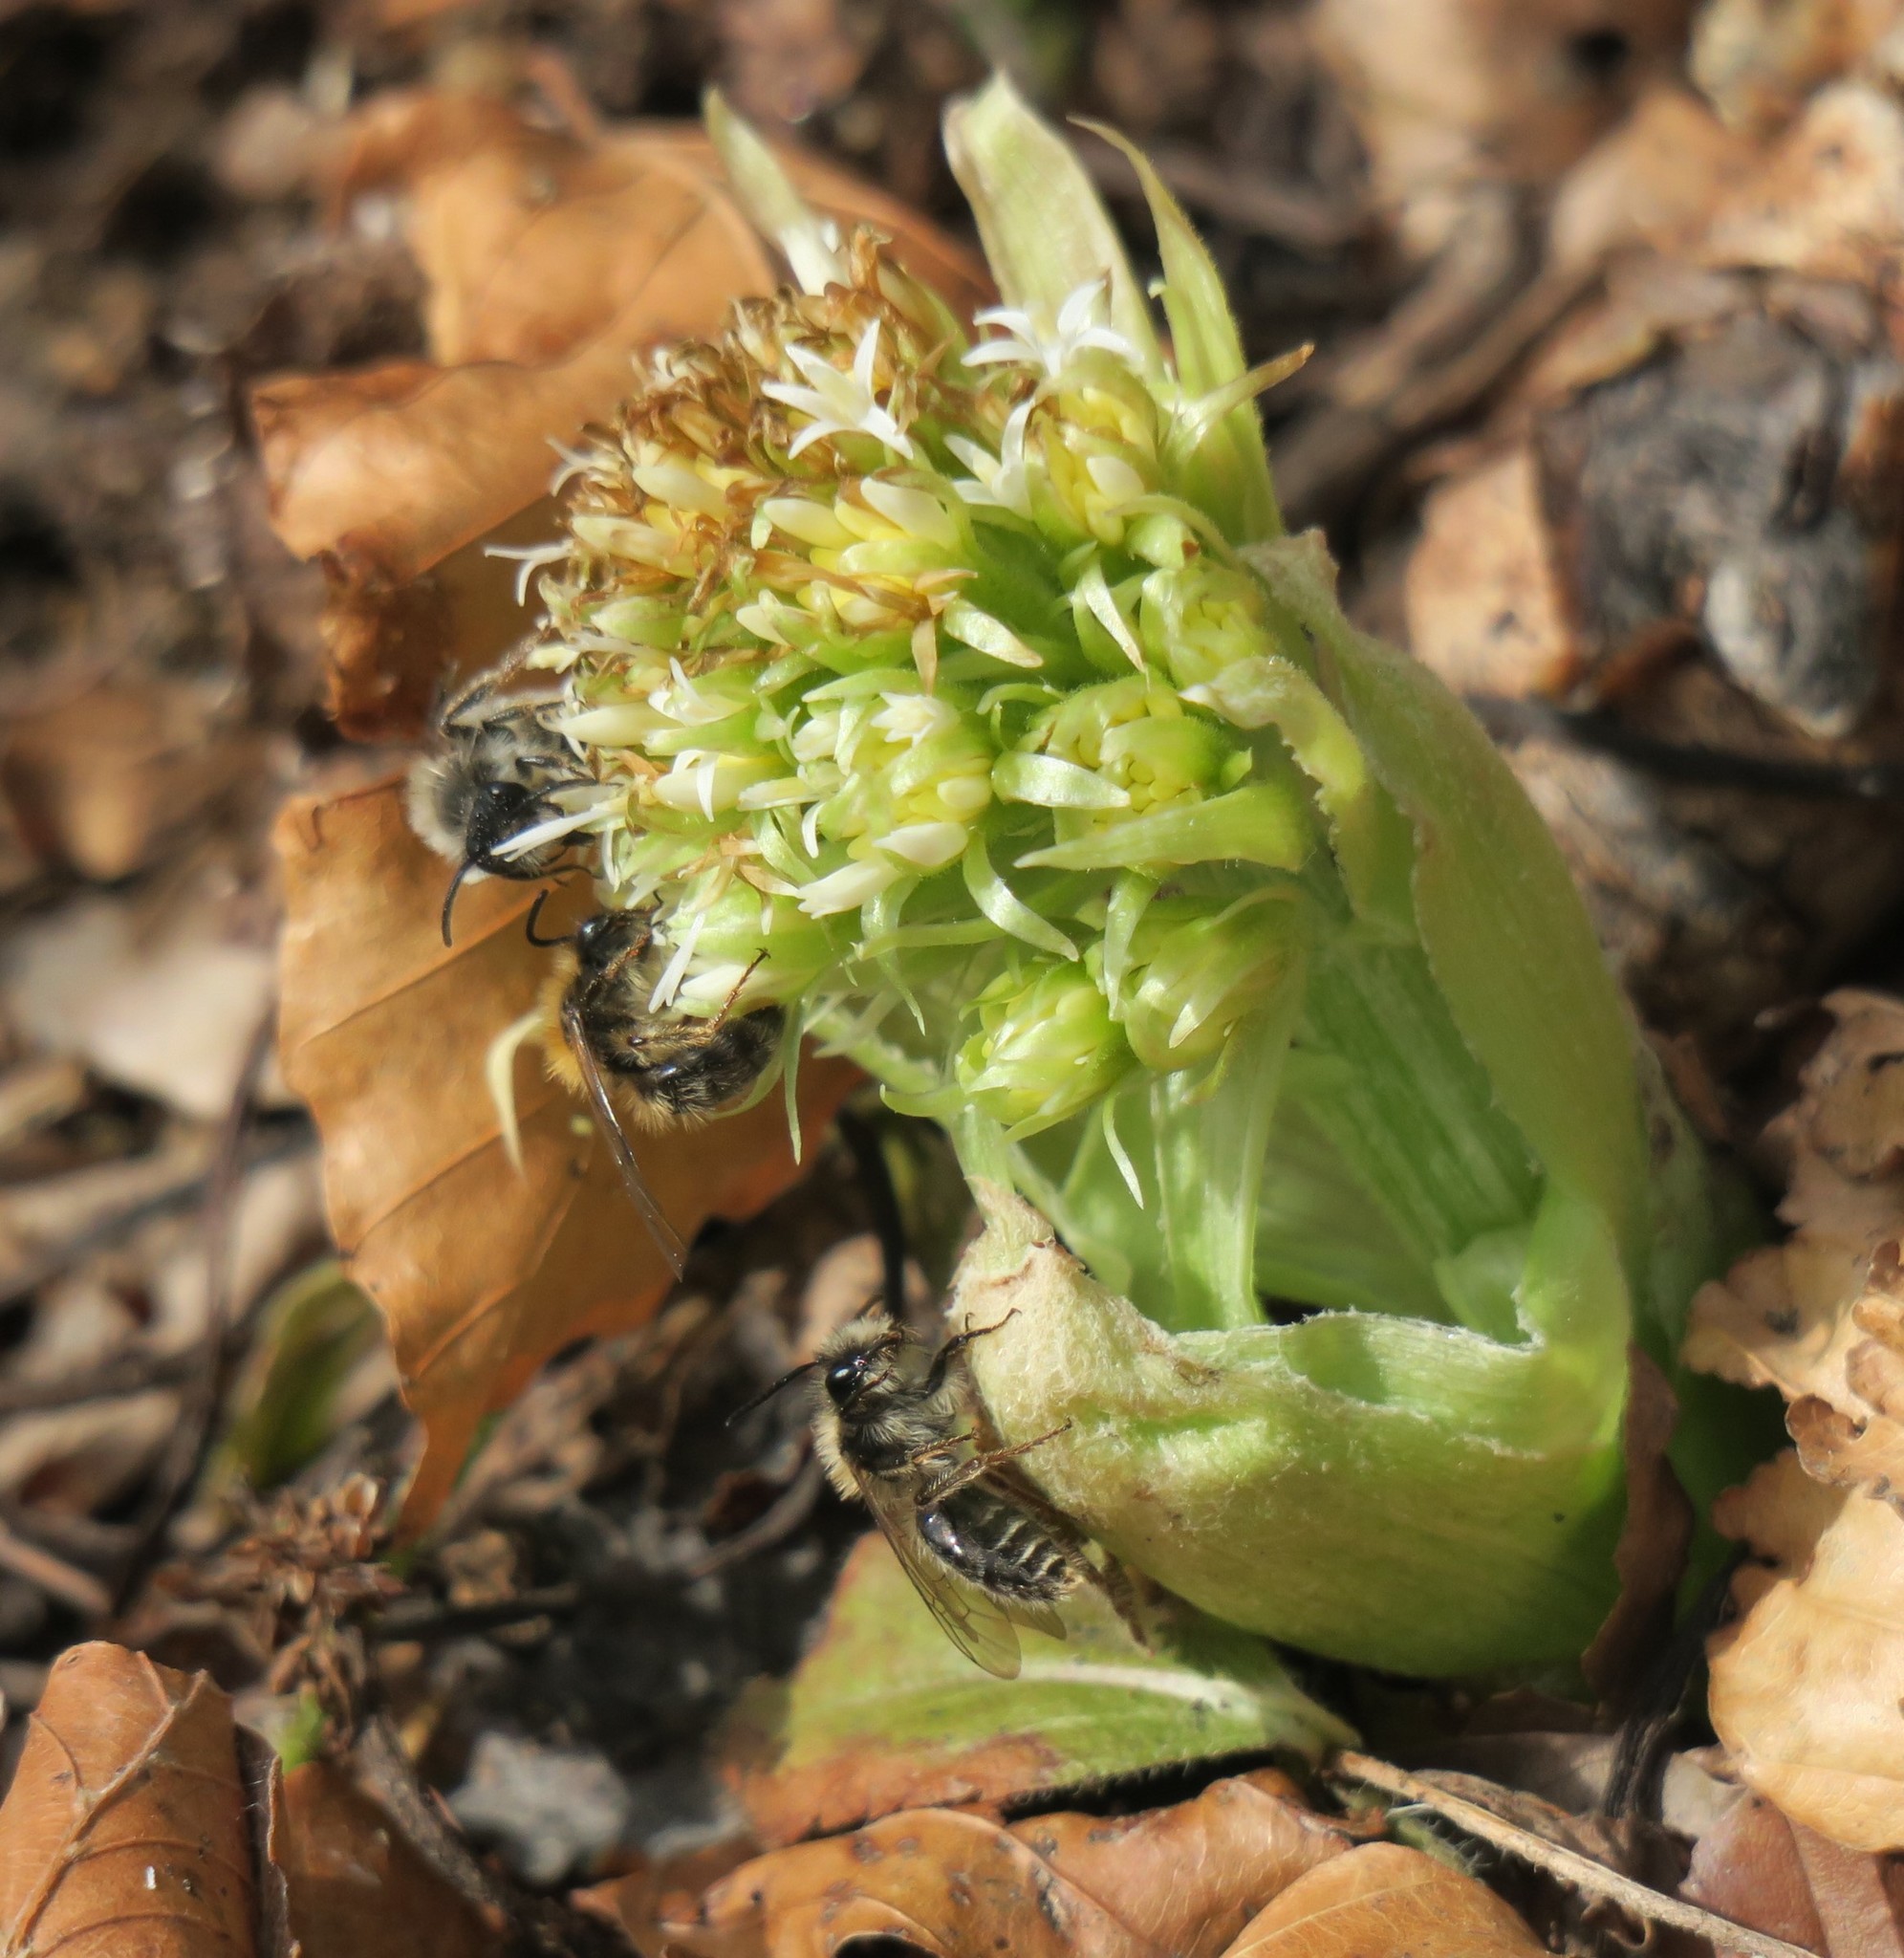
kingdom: Animalia
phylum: Arthropoda
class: Insecta
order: Hymenoptera
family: Andrenidae
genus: Andrena
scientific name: Andrena clarkella
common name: Clarke's mining bee
